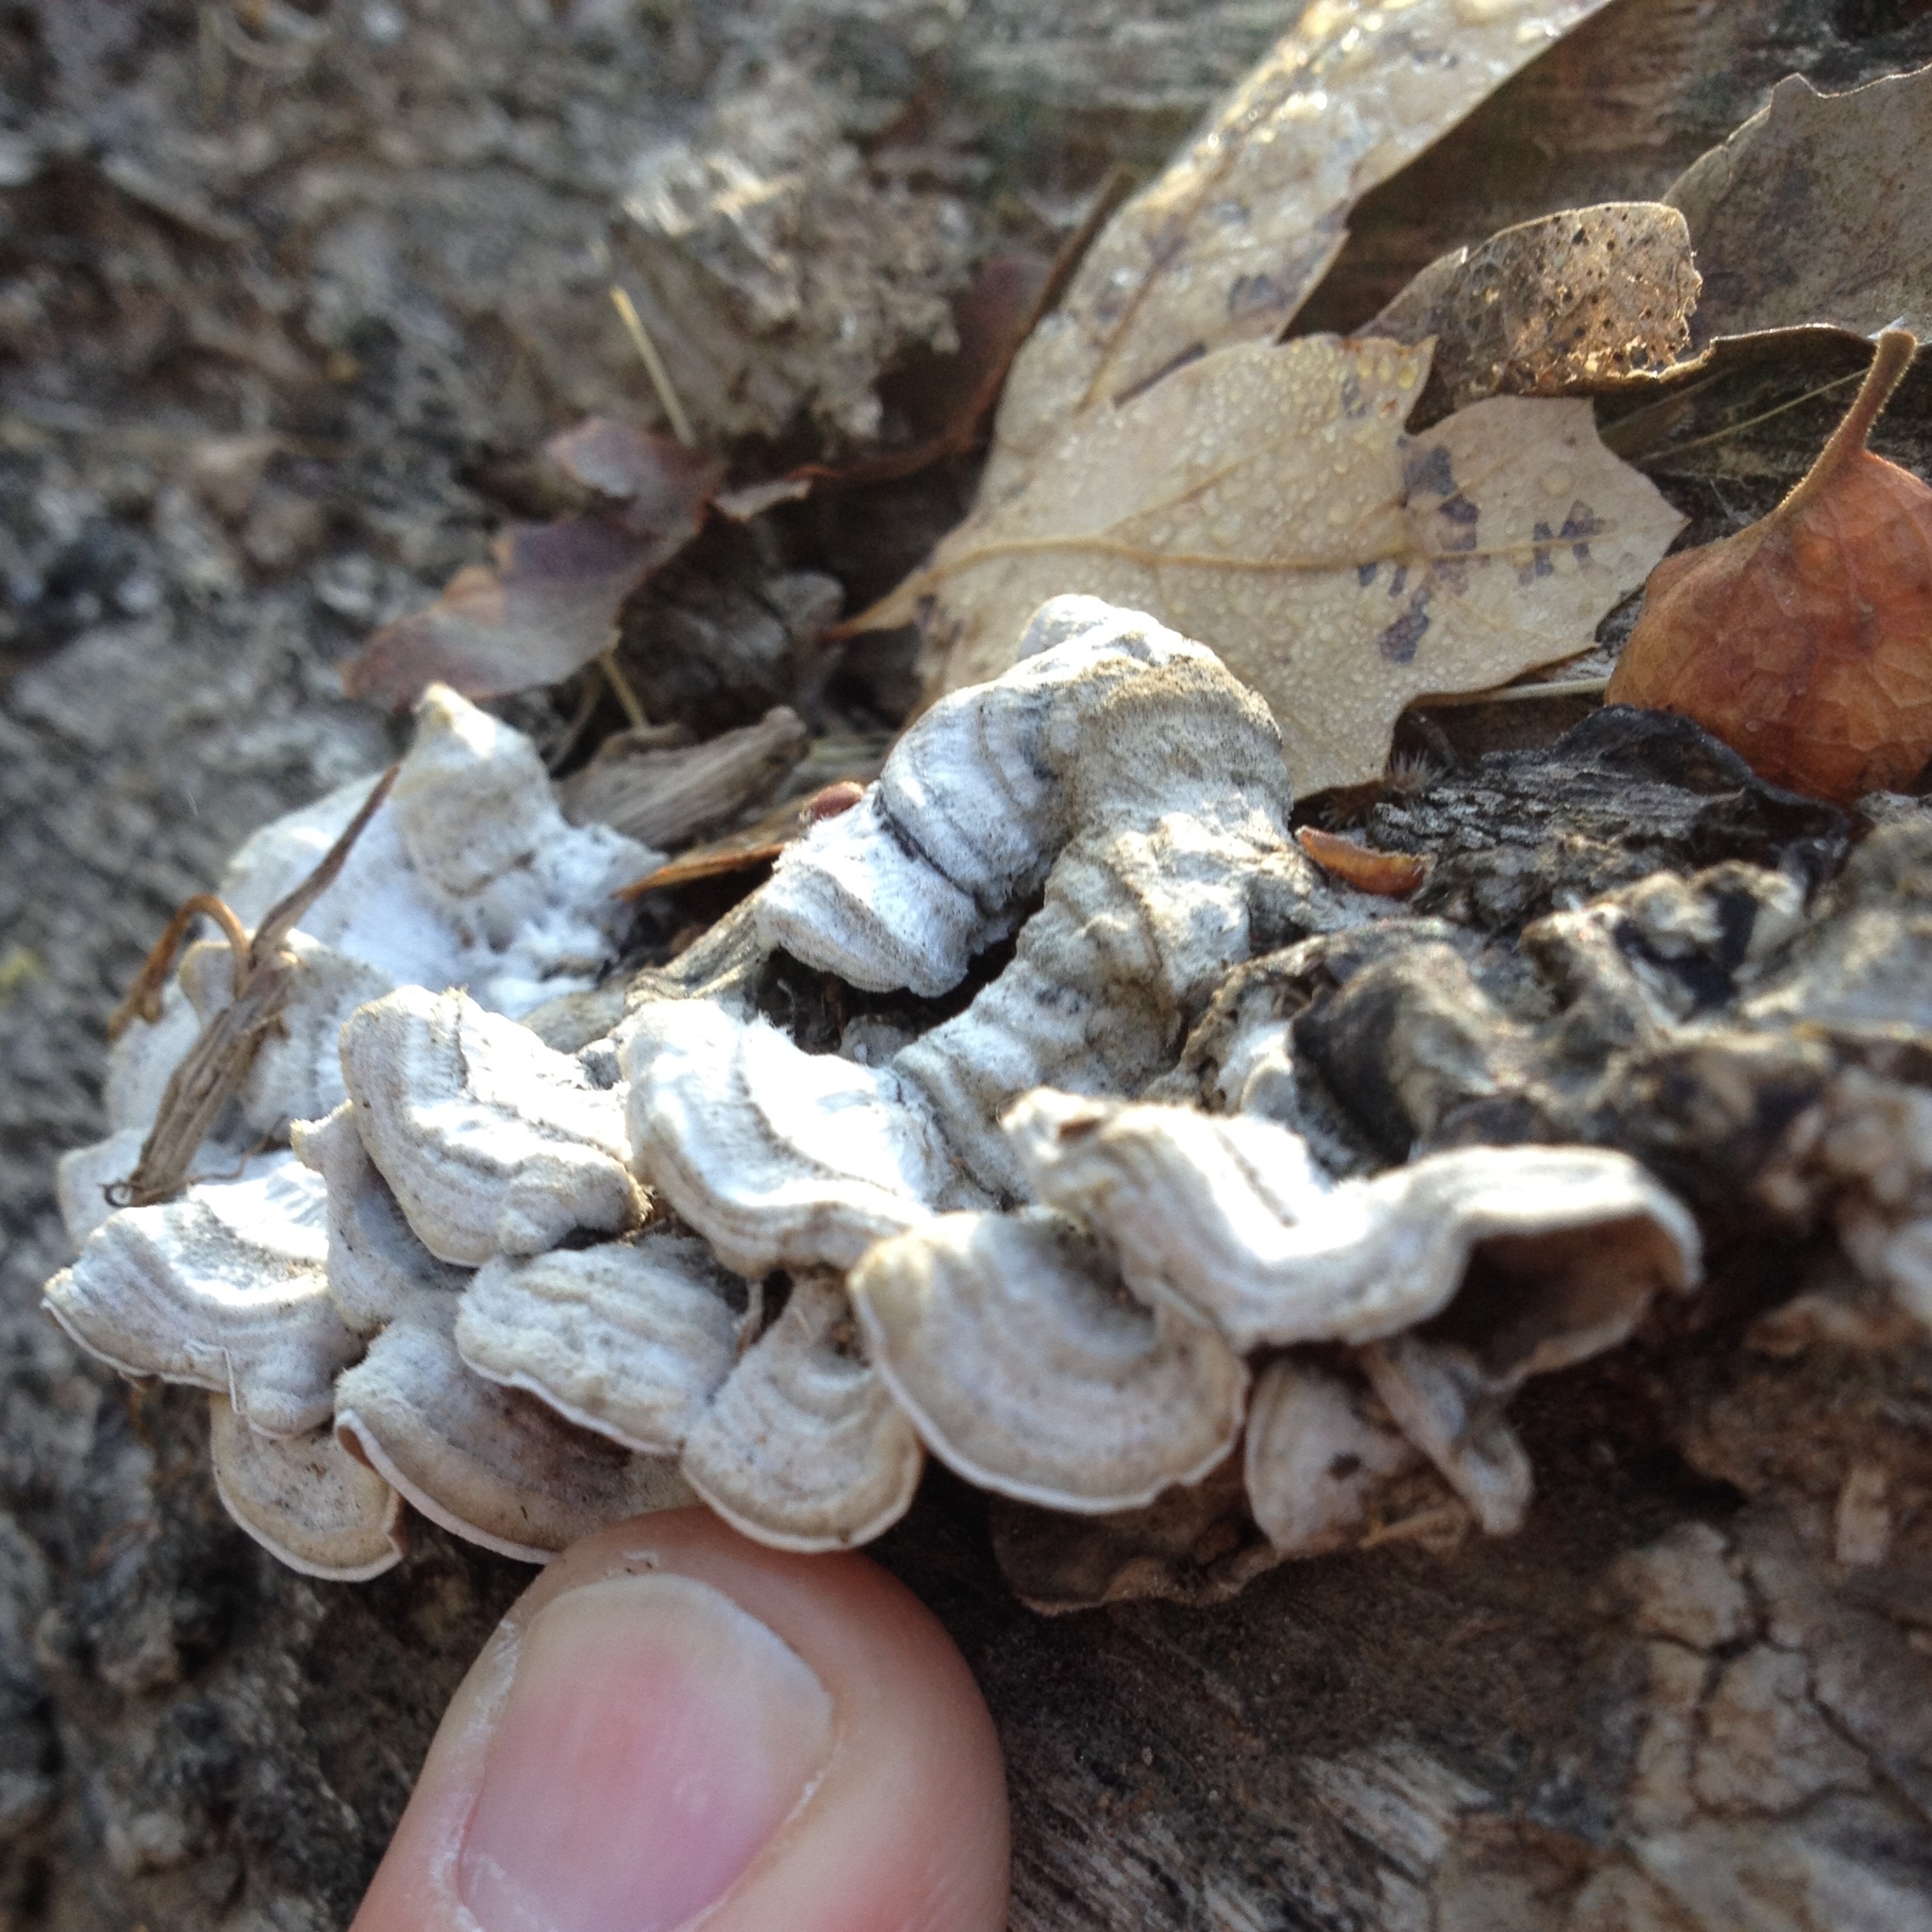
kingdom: Fungi
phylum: Basidiomycota
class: Agaricomycetes
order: Polyporales
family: Polyporaceae
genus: Trametes
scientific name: Trametes versicolor
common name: Turkeytail
